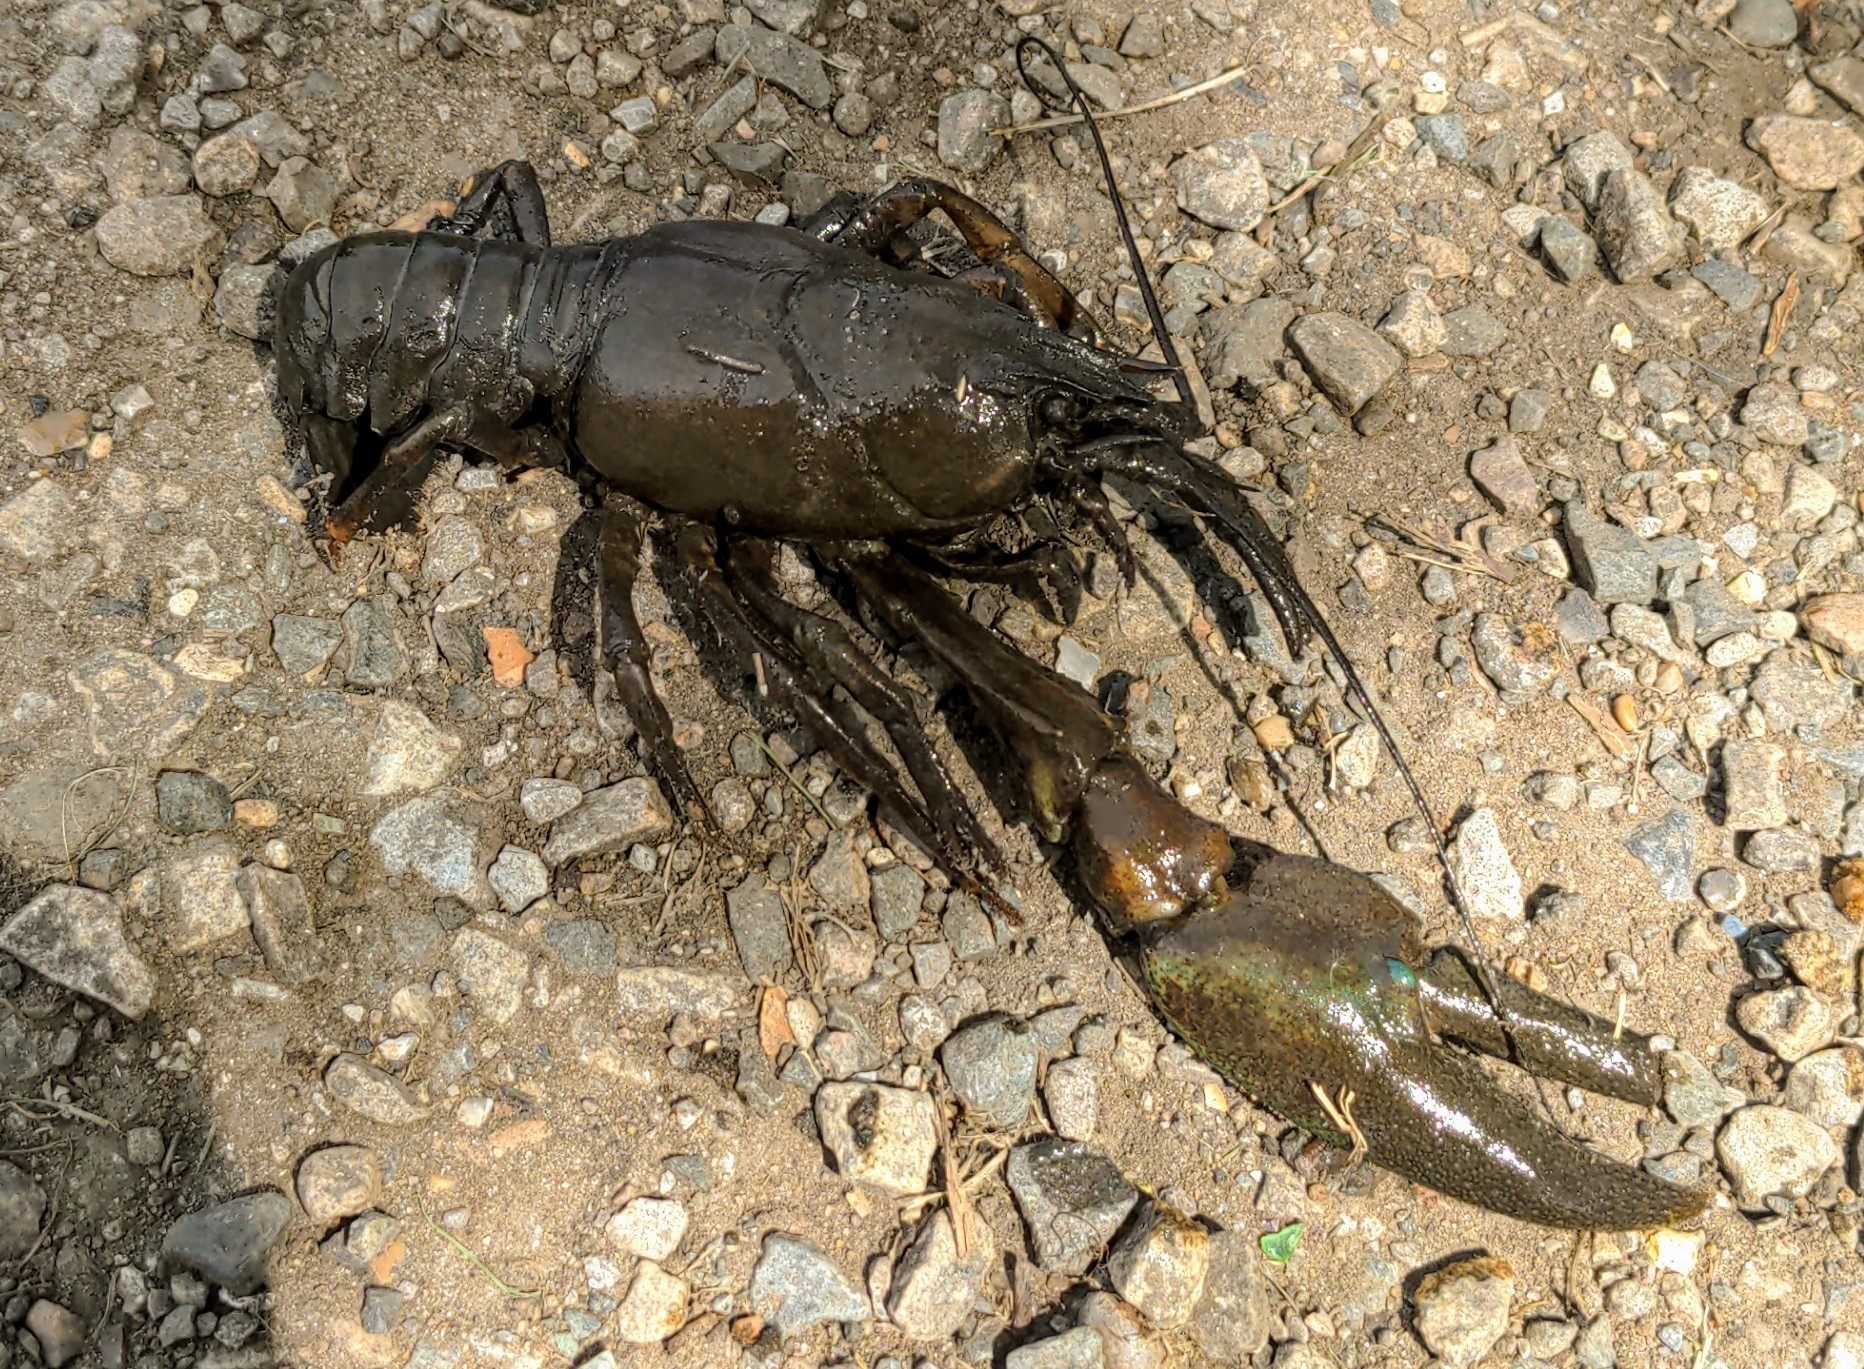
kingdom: Animalia
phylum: Arthropoda
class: Malacostraca
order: Decapoda
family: Astacidae
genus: Pacifastacus
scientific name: Pacifastacus leniusculus
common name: Signal crayfish
